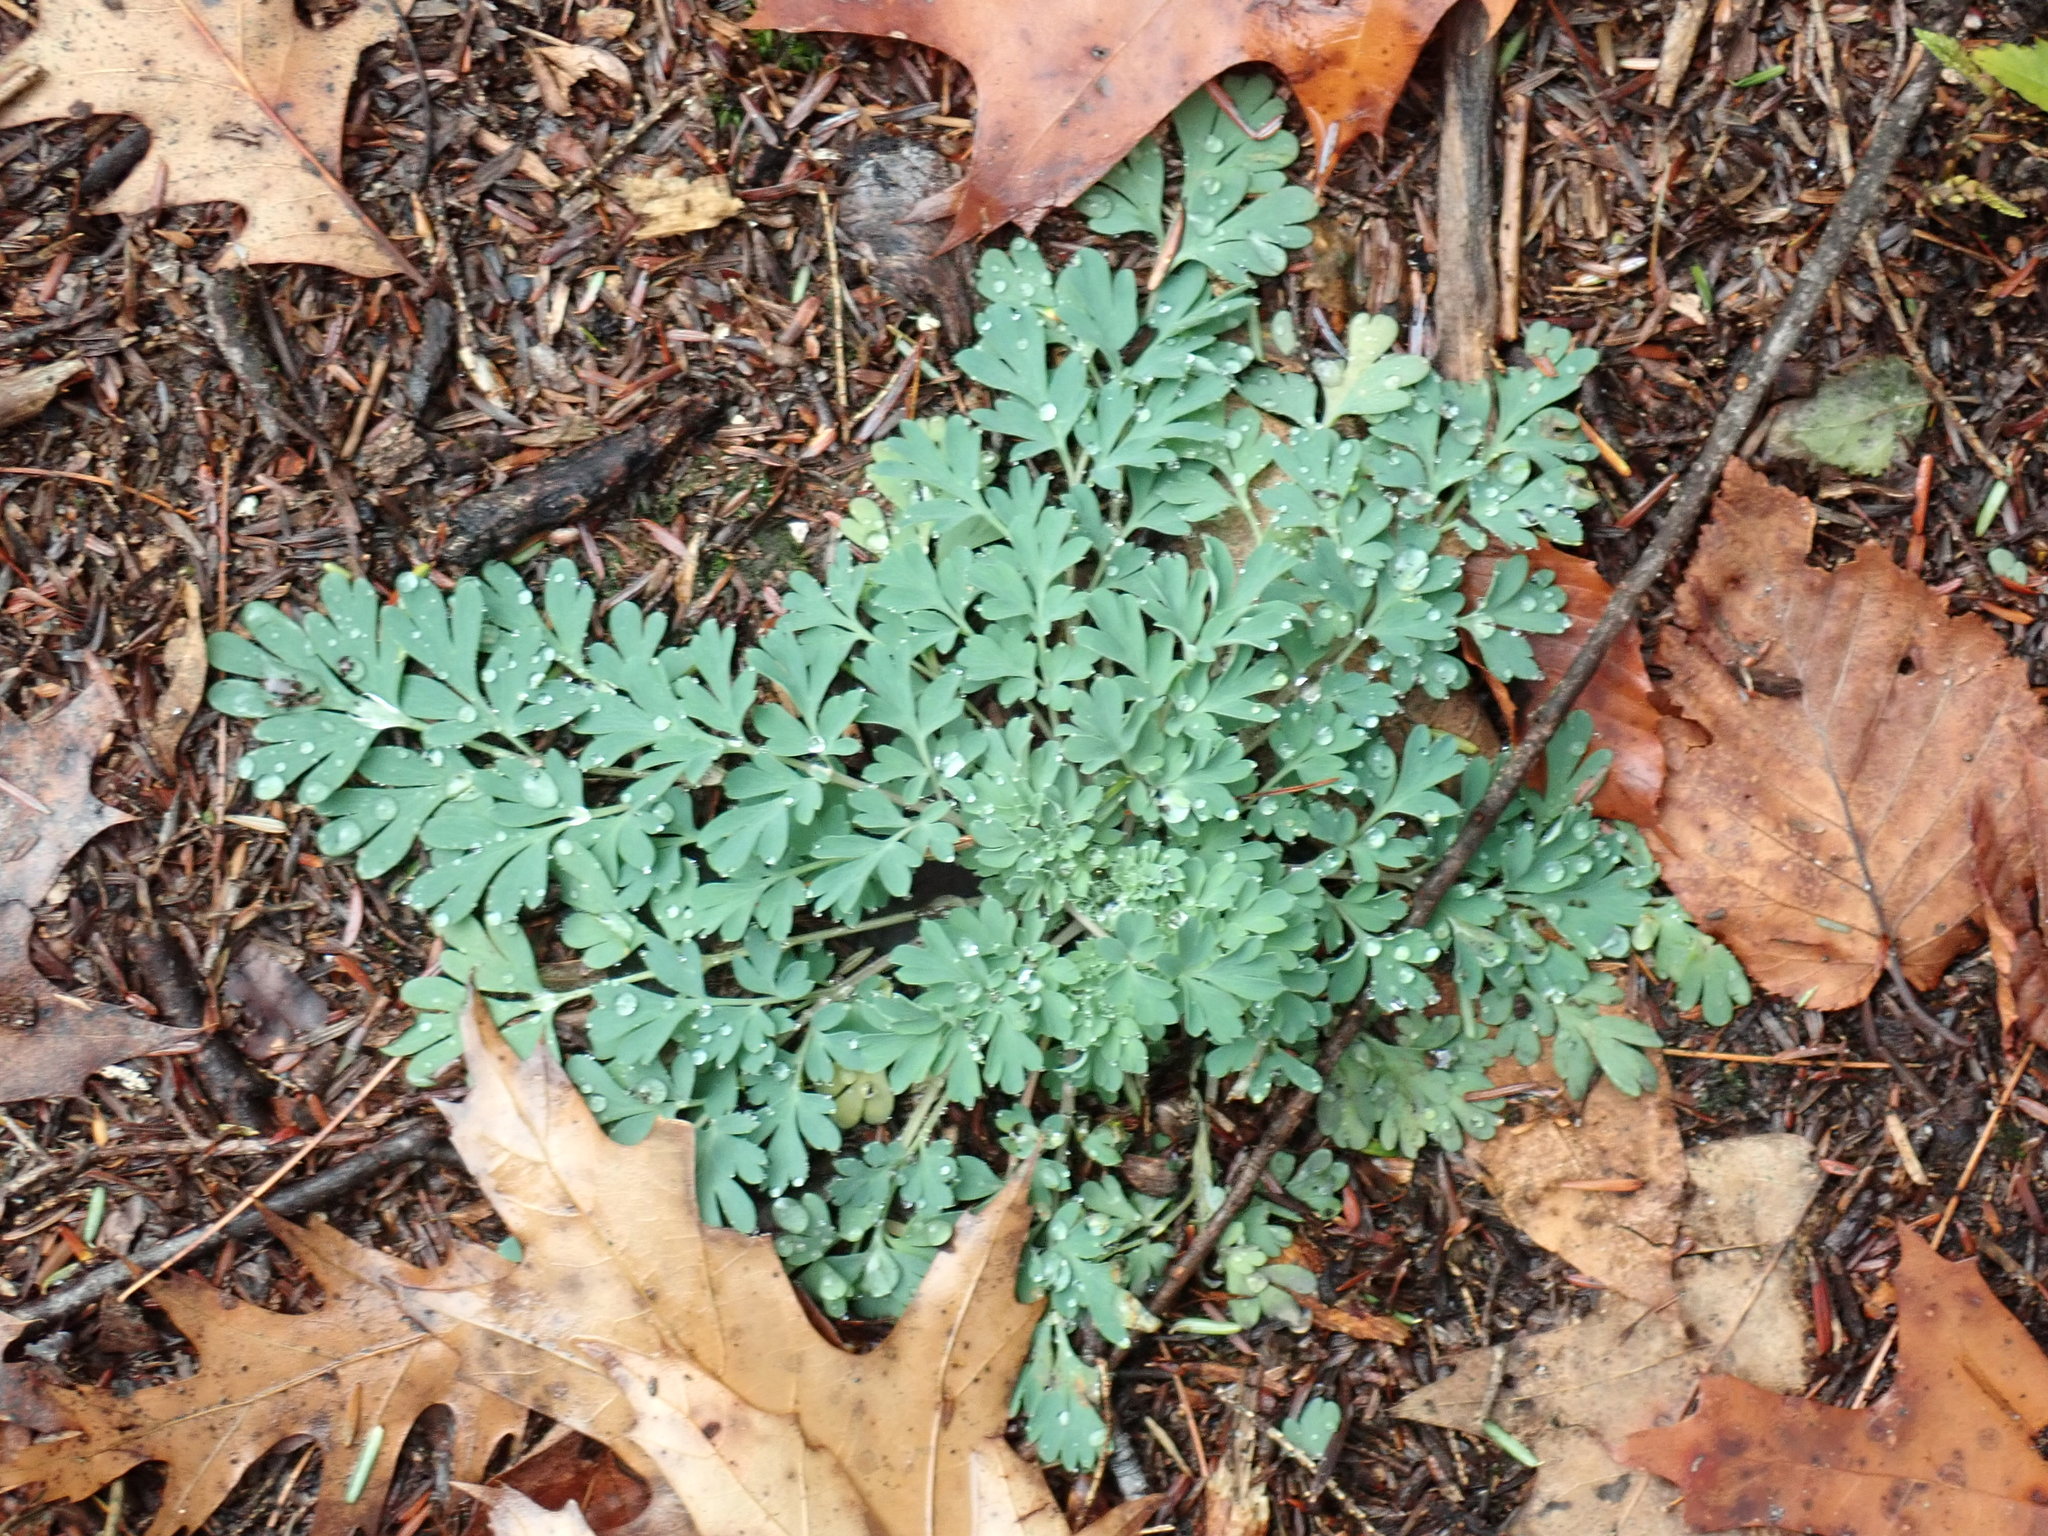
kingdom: Plantae
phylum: Tracheophyta
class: Magnoliopsida
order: Ranunculales
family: Papaveraceae
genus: Capnoides
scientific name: Capnoides sempervirens
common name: Rock harlequin
